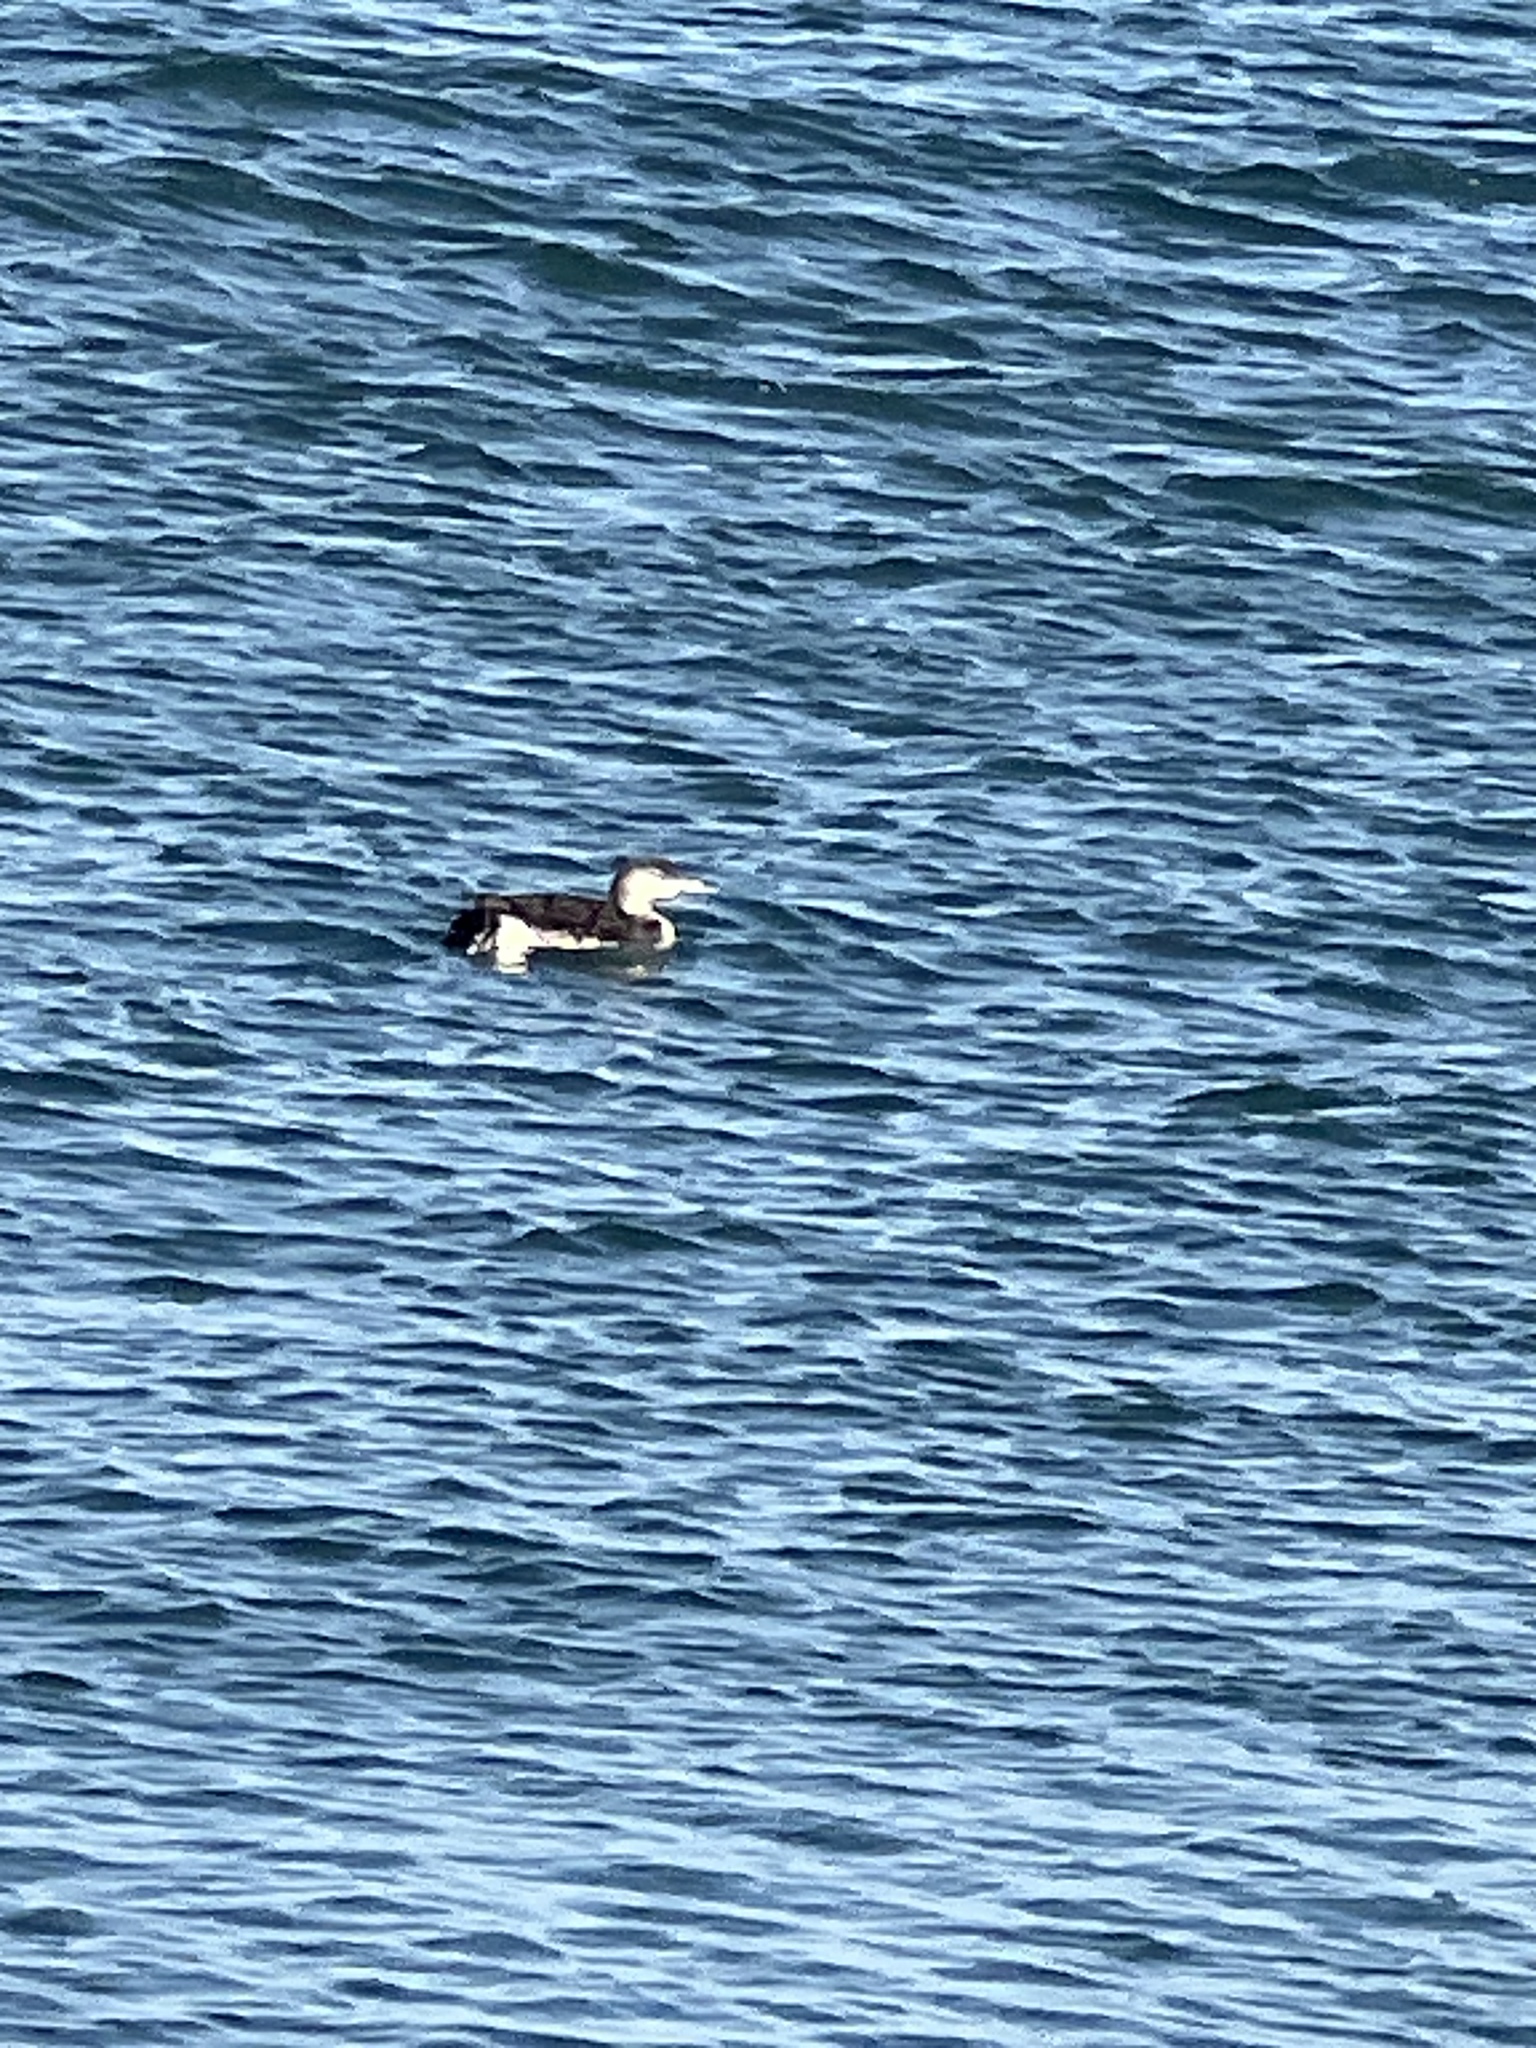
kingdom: Animalia
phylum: Chordata
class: Aves
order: Gaviiformes
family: Gaviidae
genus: Gavia
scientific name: Gavia stellata
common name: Red-throated loon
